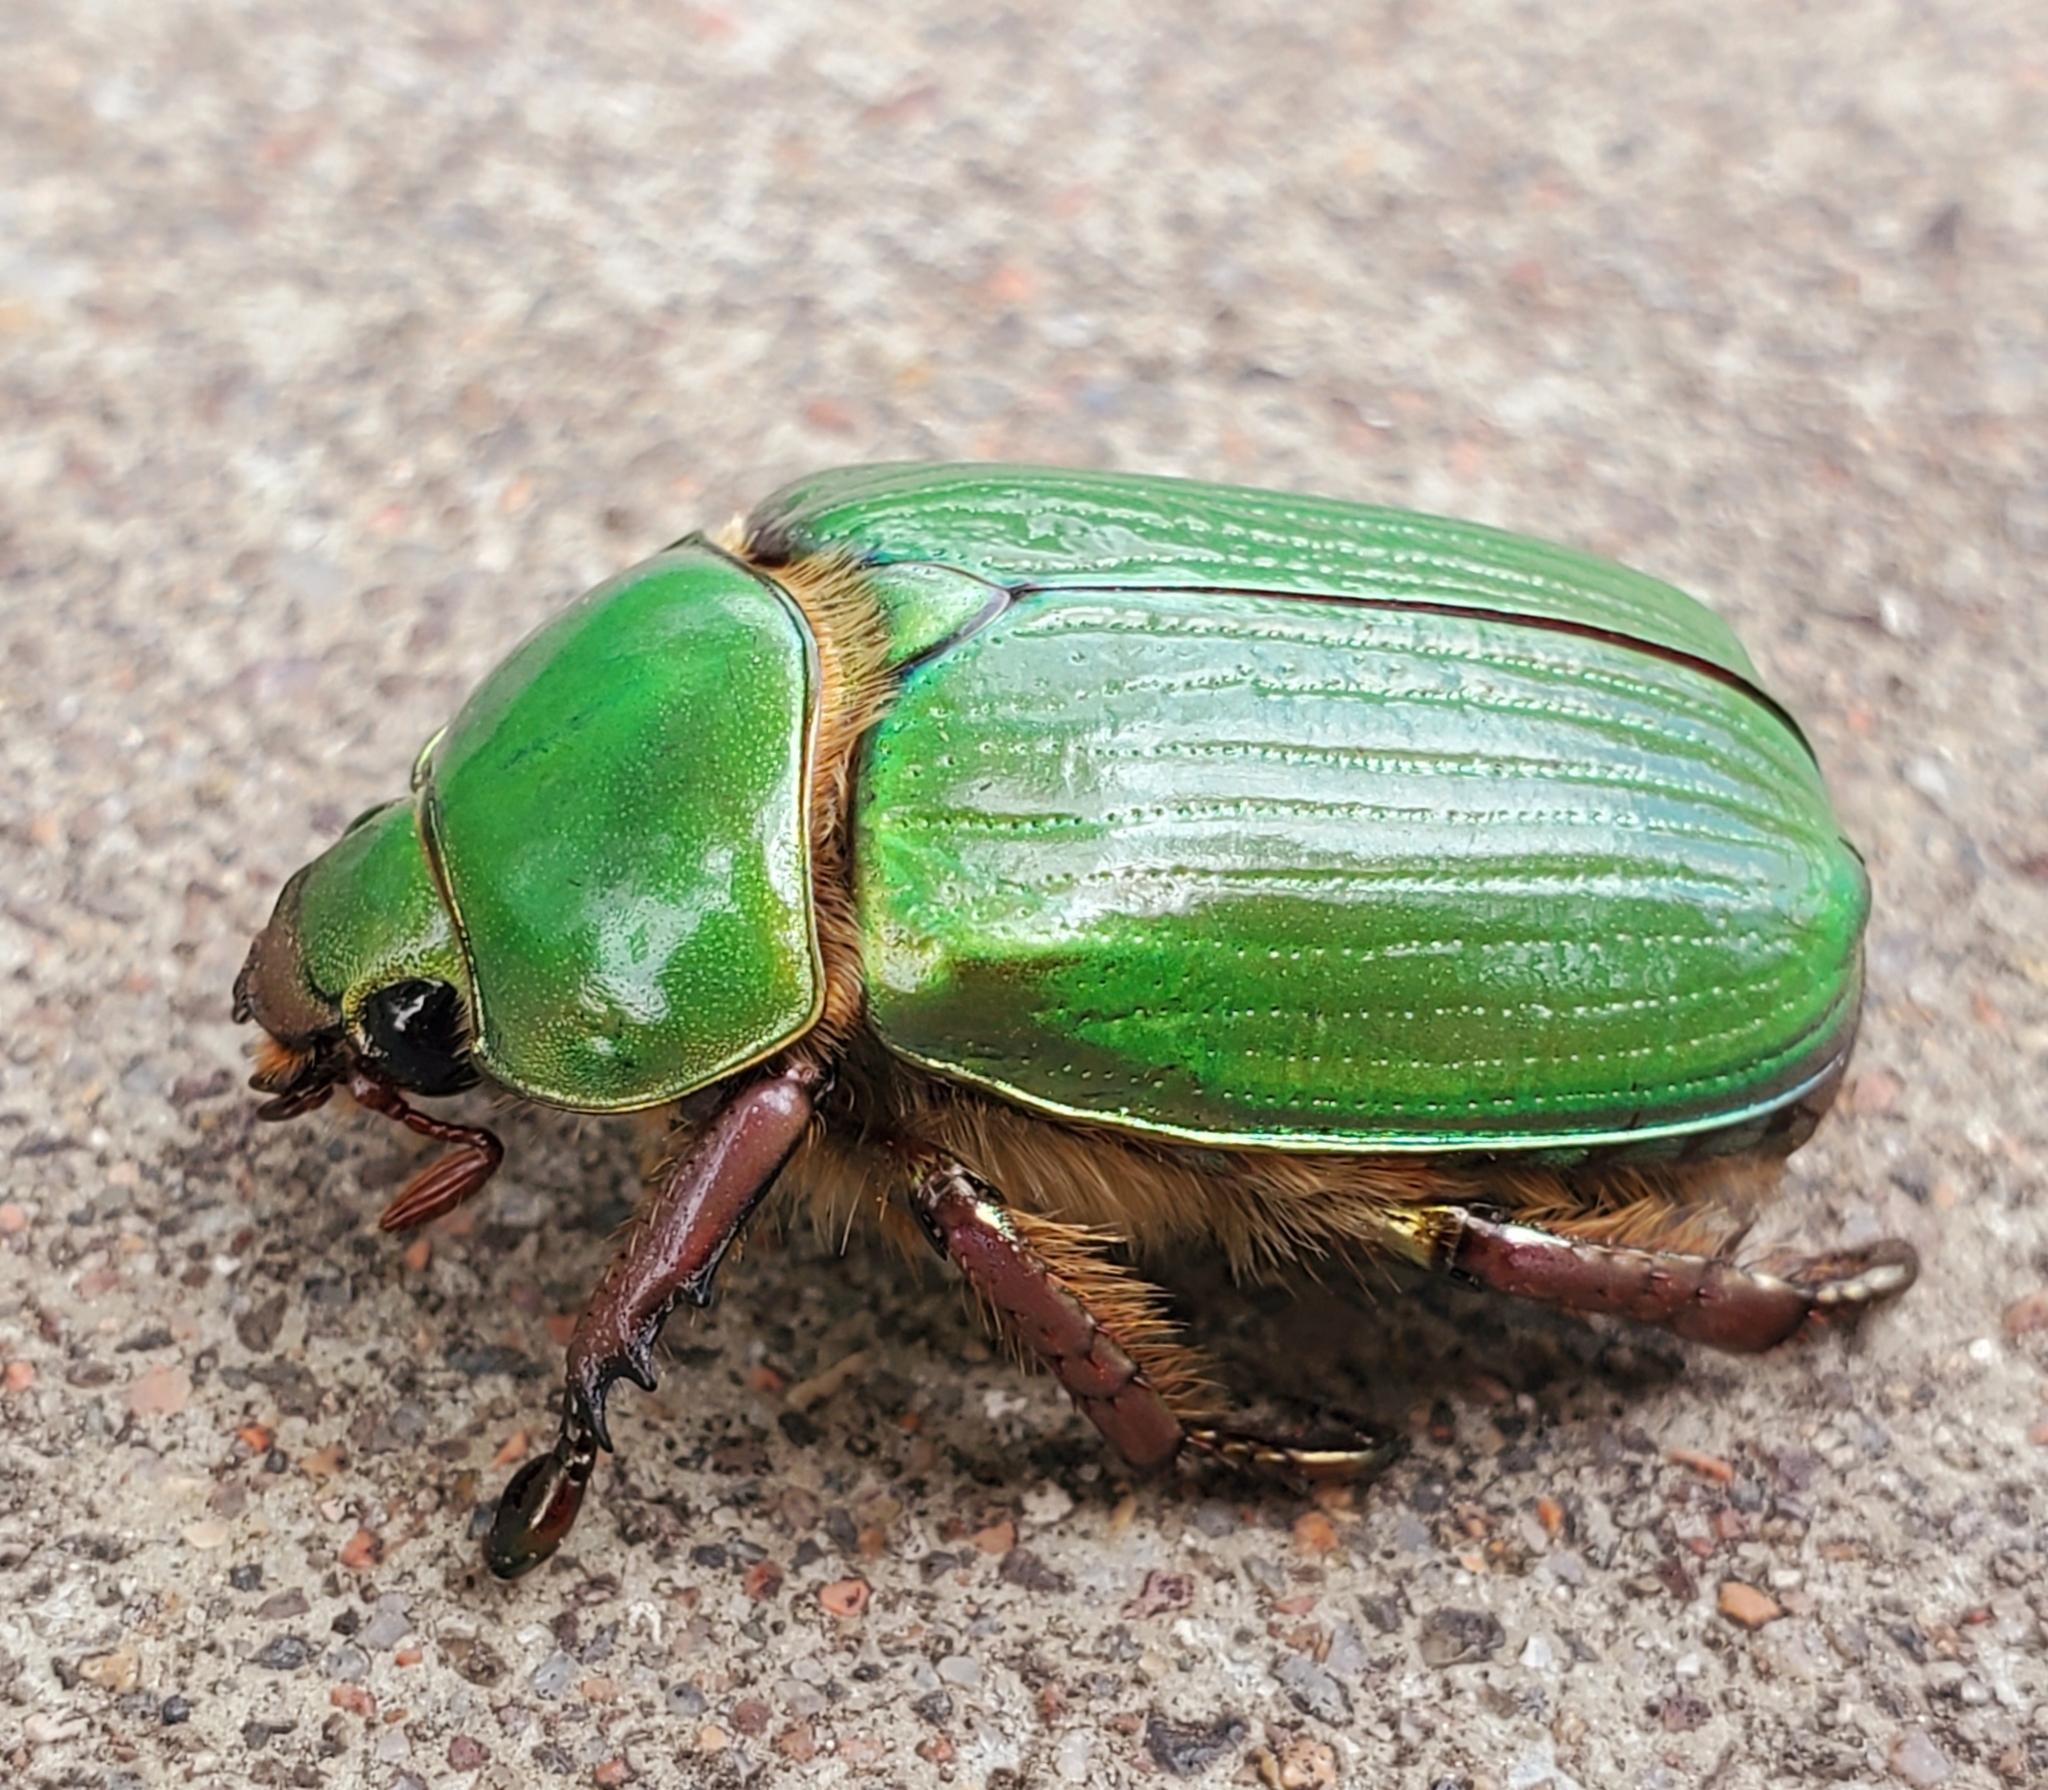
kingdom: Animalia
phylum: Arthropoda
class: Insecta
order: Coleoptera
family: Scarabaeidae
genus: Chrysina
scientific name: Chrysina lecontei
